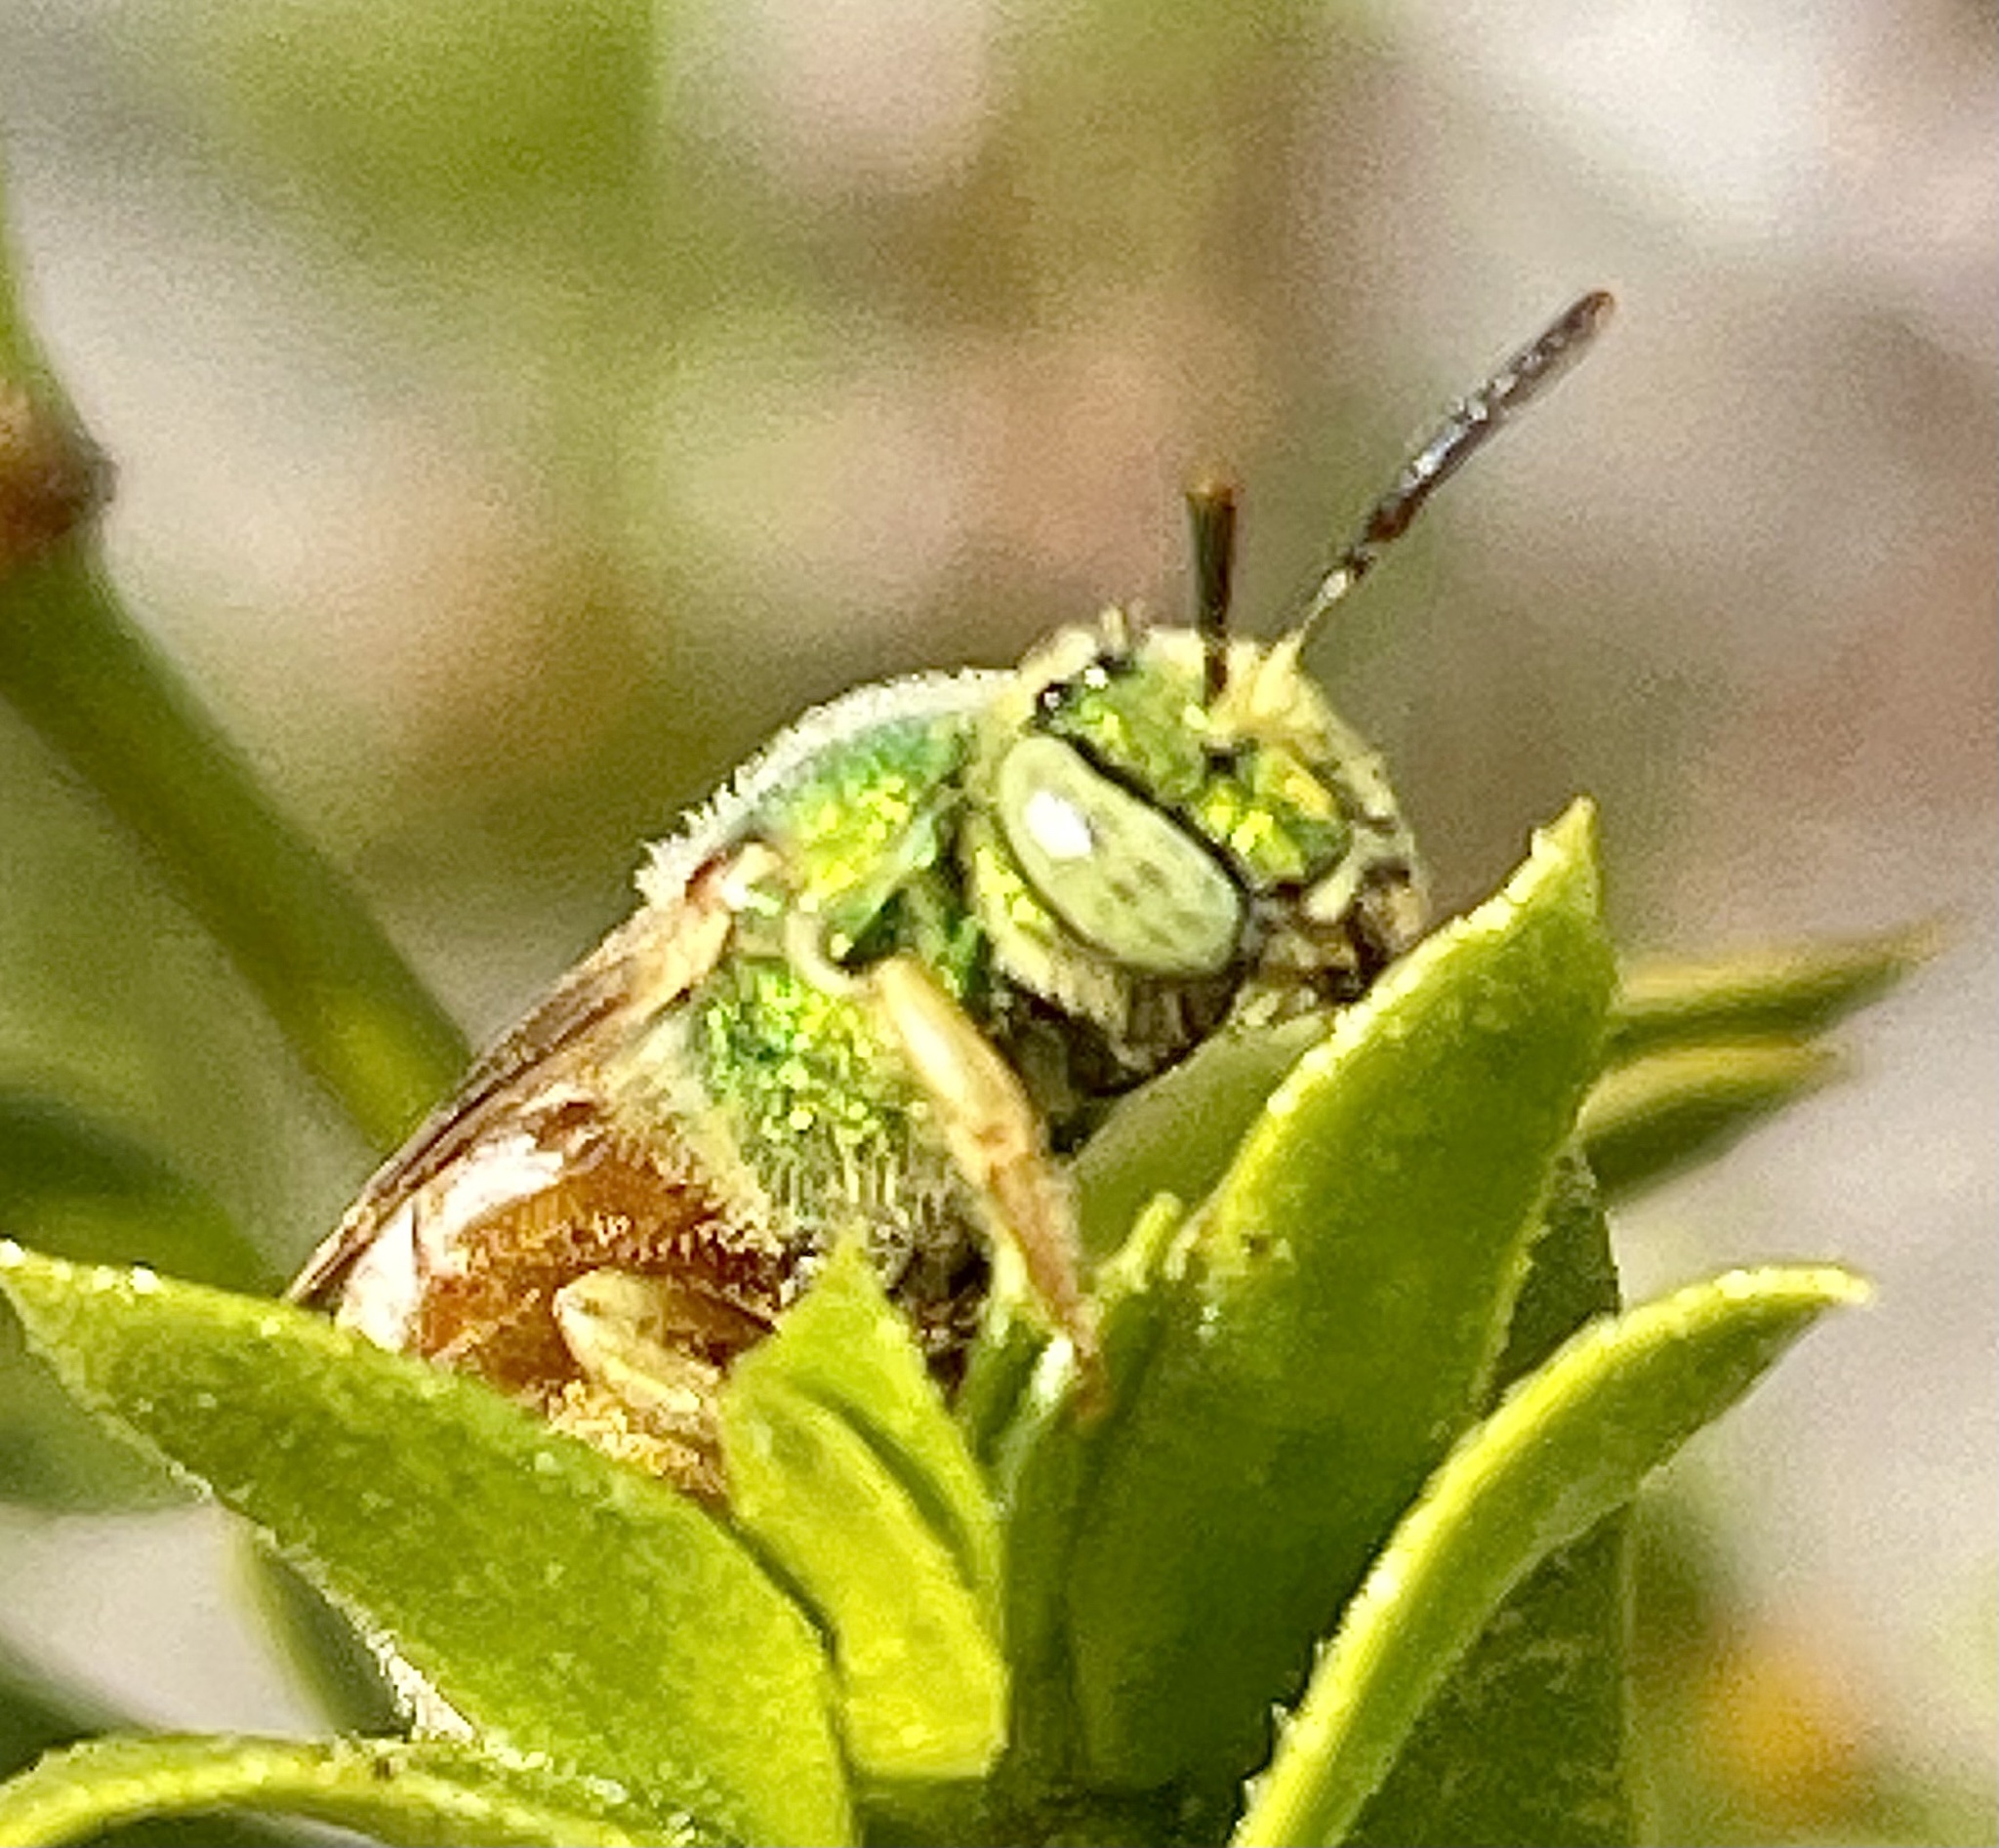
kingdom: Animalia
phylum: Arthropoda
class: Insecta
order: Hymenoptera
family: Halictidae
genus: Agapostemon
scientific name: Agapostemon melliventris
